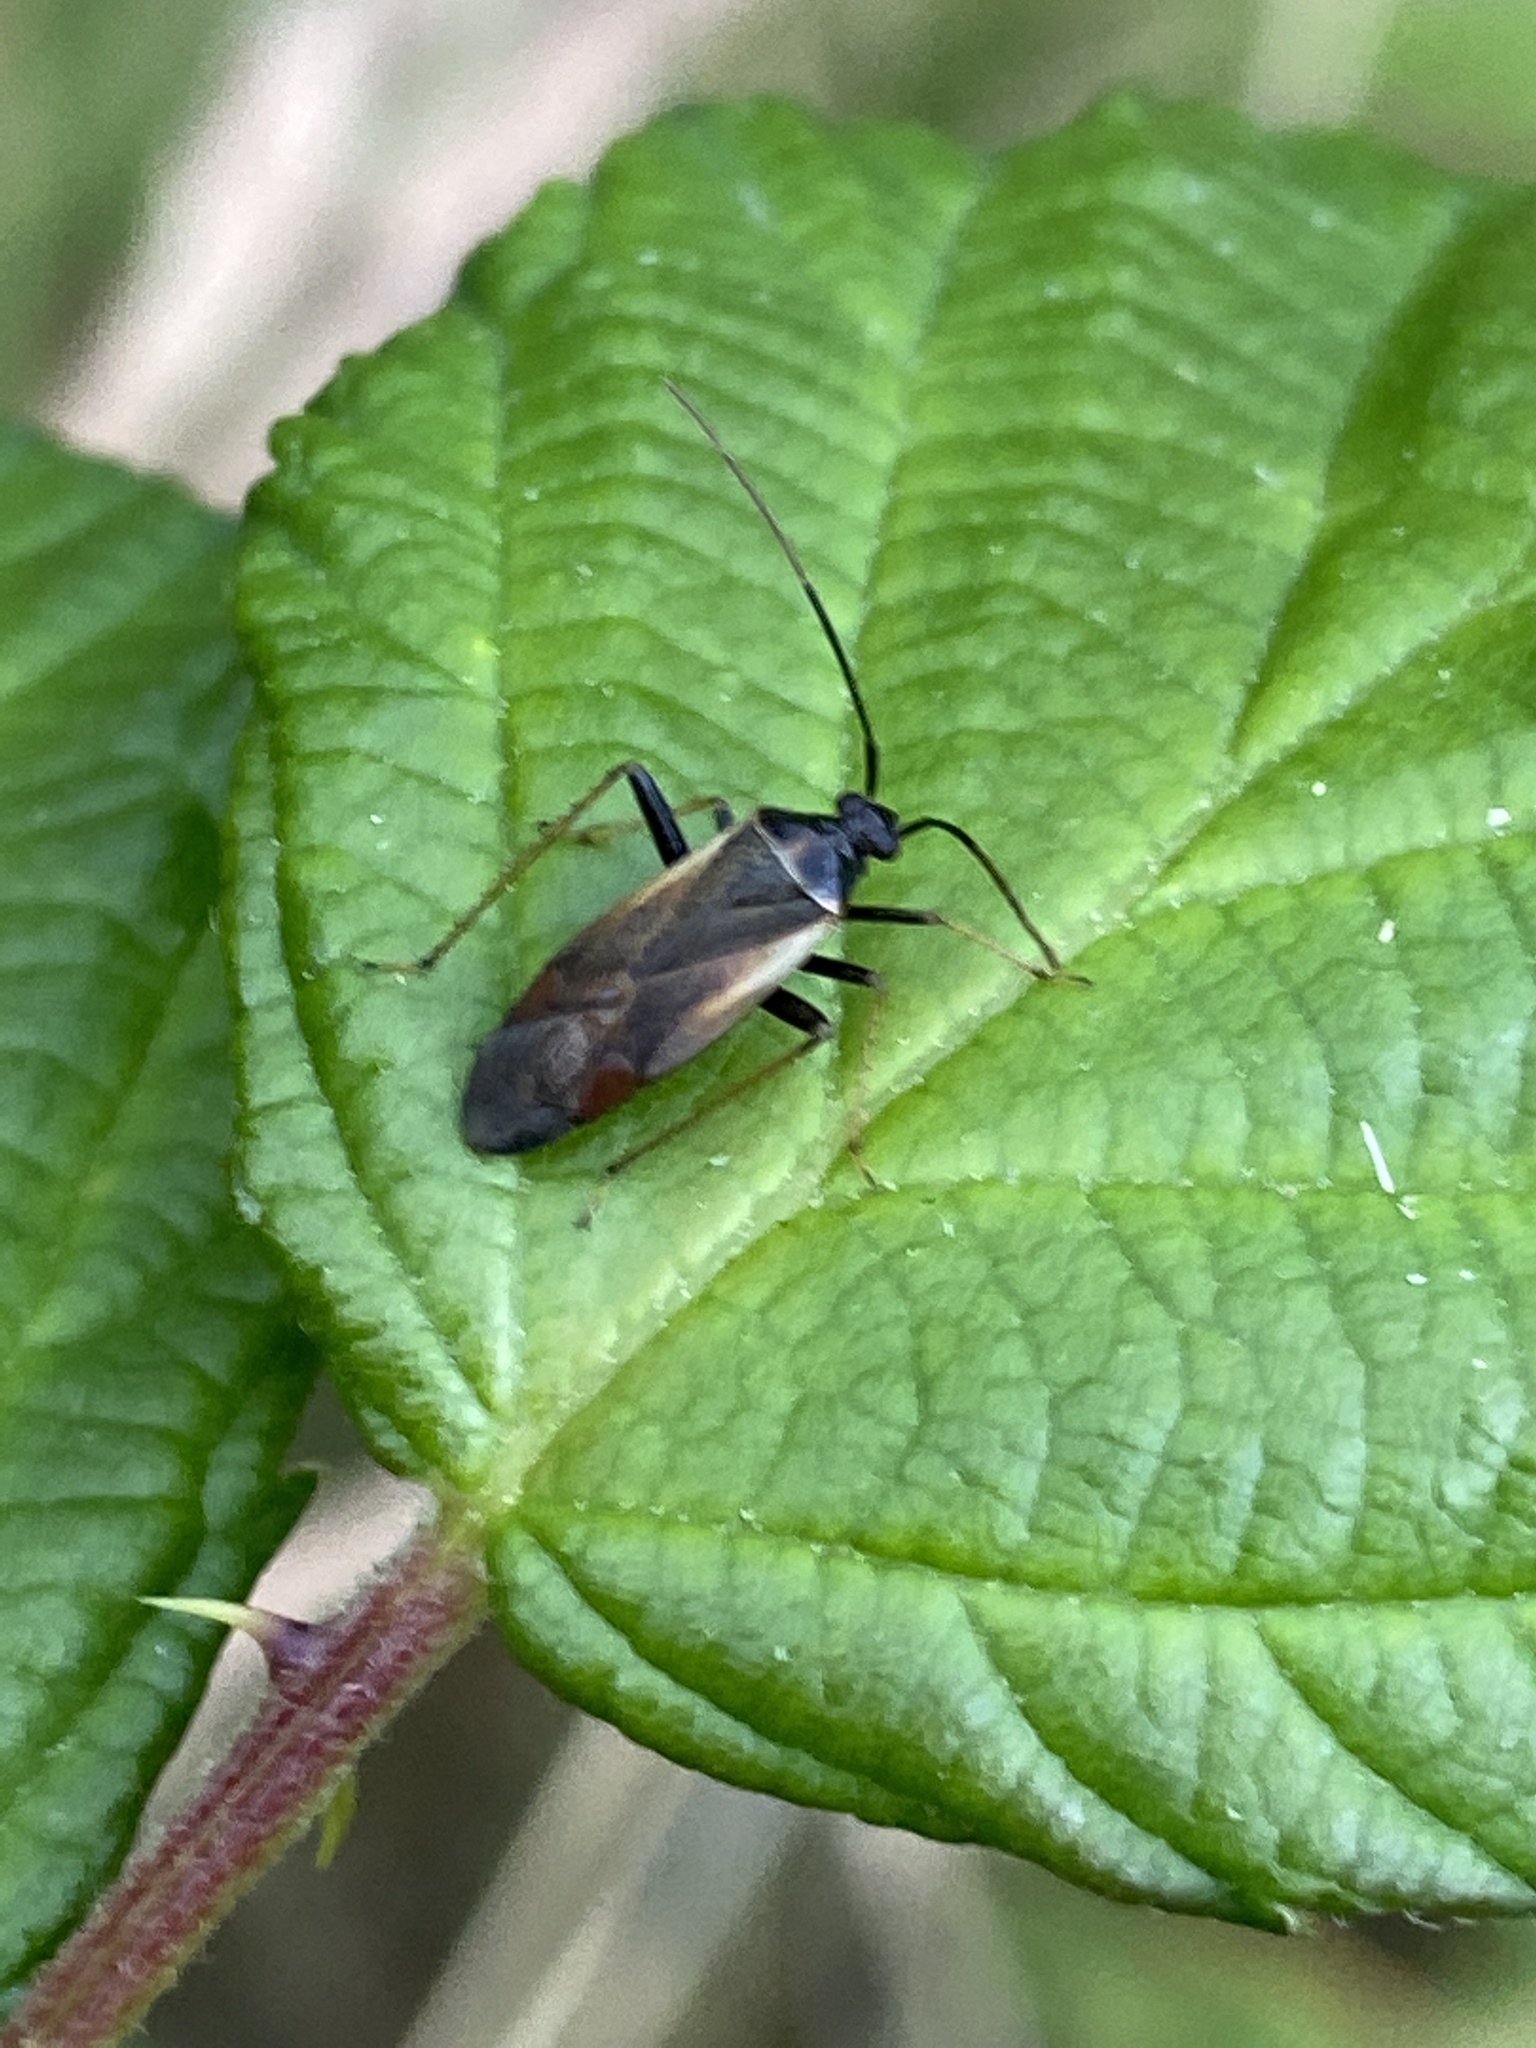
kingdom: Animalia
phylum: Arthropoda
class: Insecta
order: Hemiptera
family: Miridae
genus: Adelphocoris
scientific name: Adelphocoris seticornis
